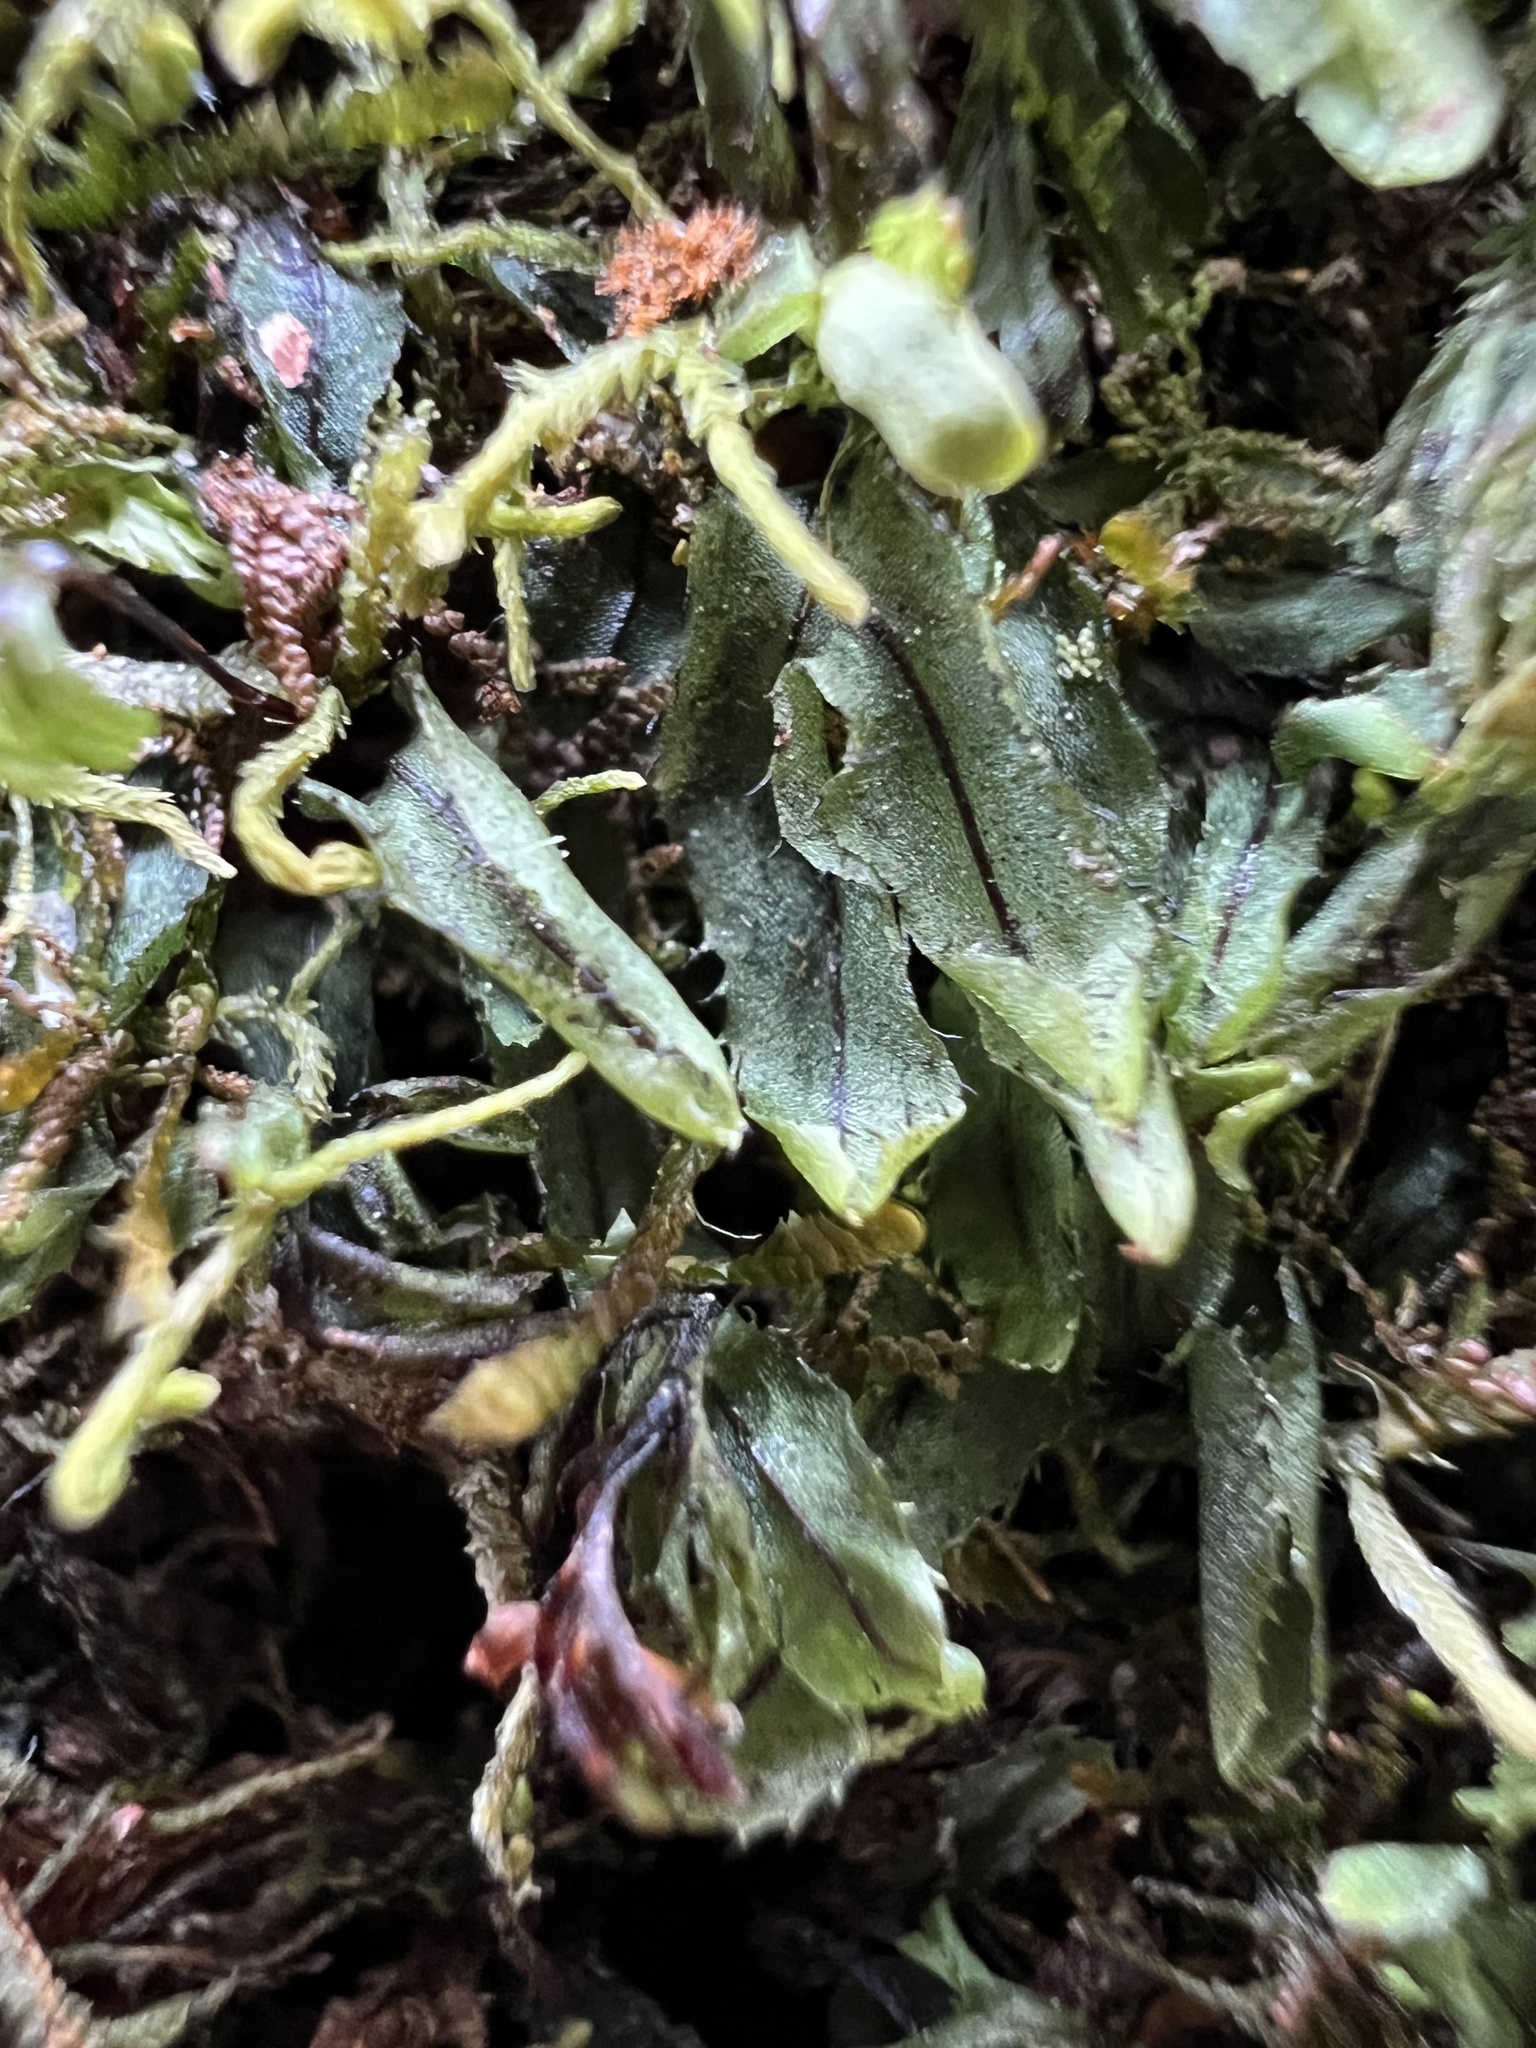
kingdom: Plantae
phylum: Tracheophyta
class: Polypodiopsida
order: Hymenophyllales
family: Hymenophyllaceae
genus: Hymenophyllum
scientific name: Hymenophyllum armstrongii
